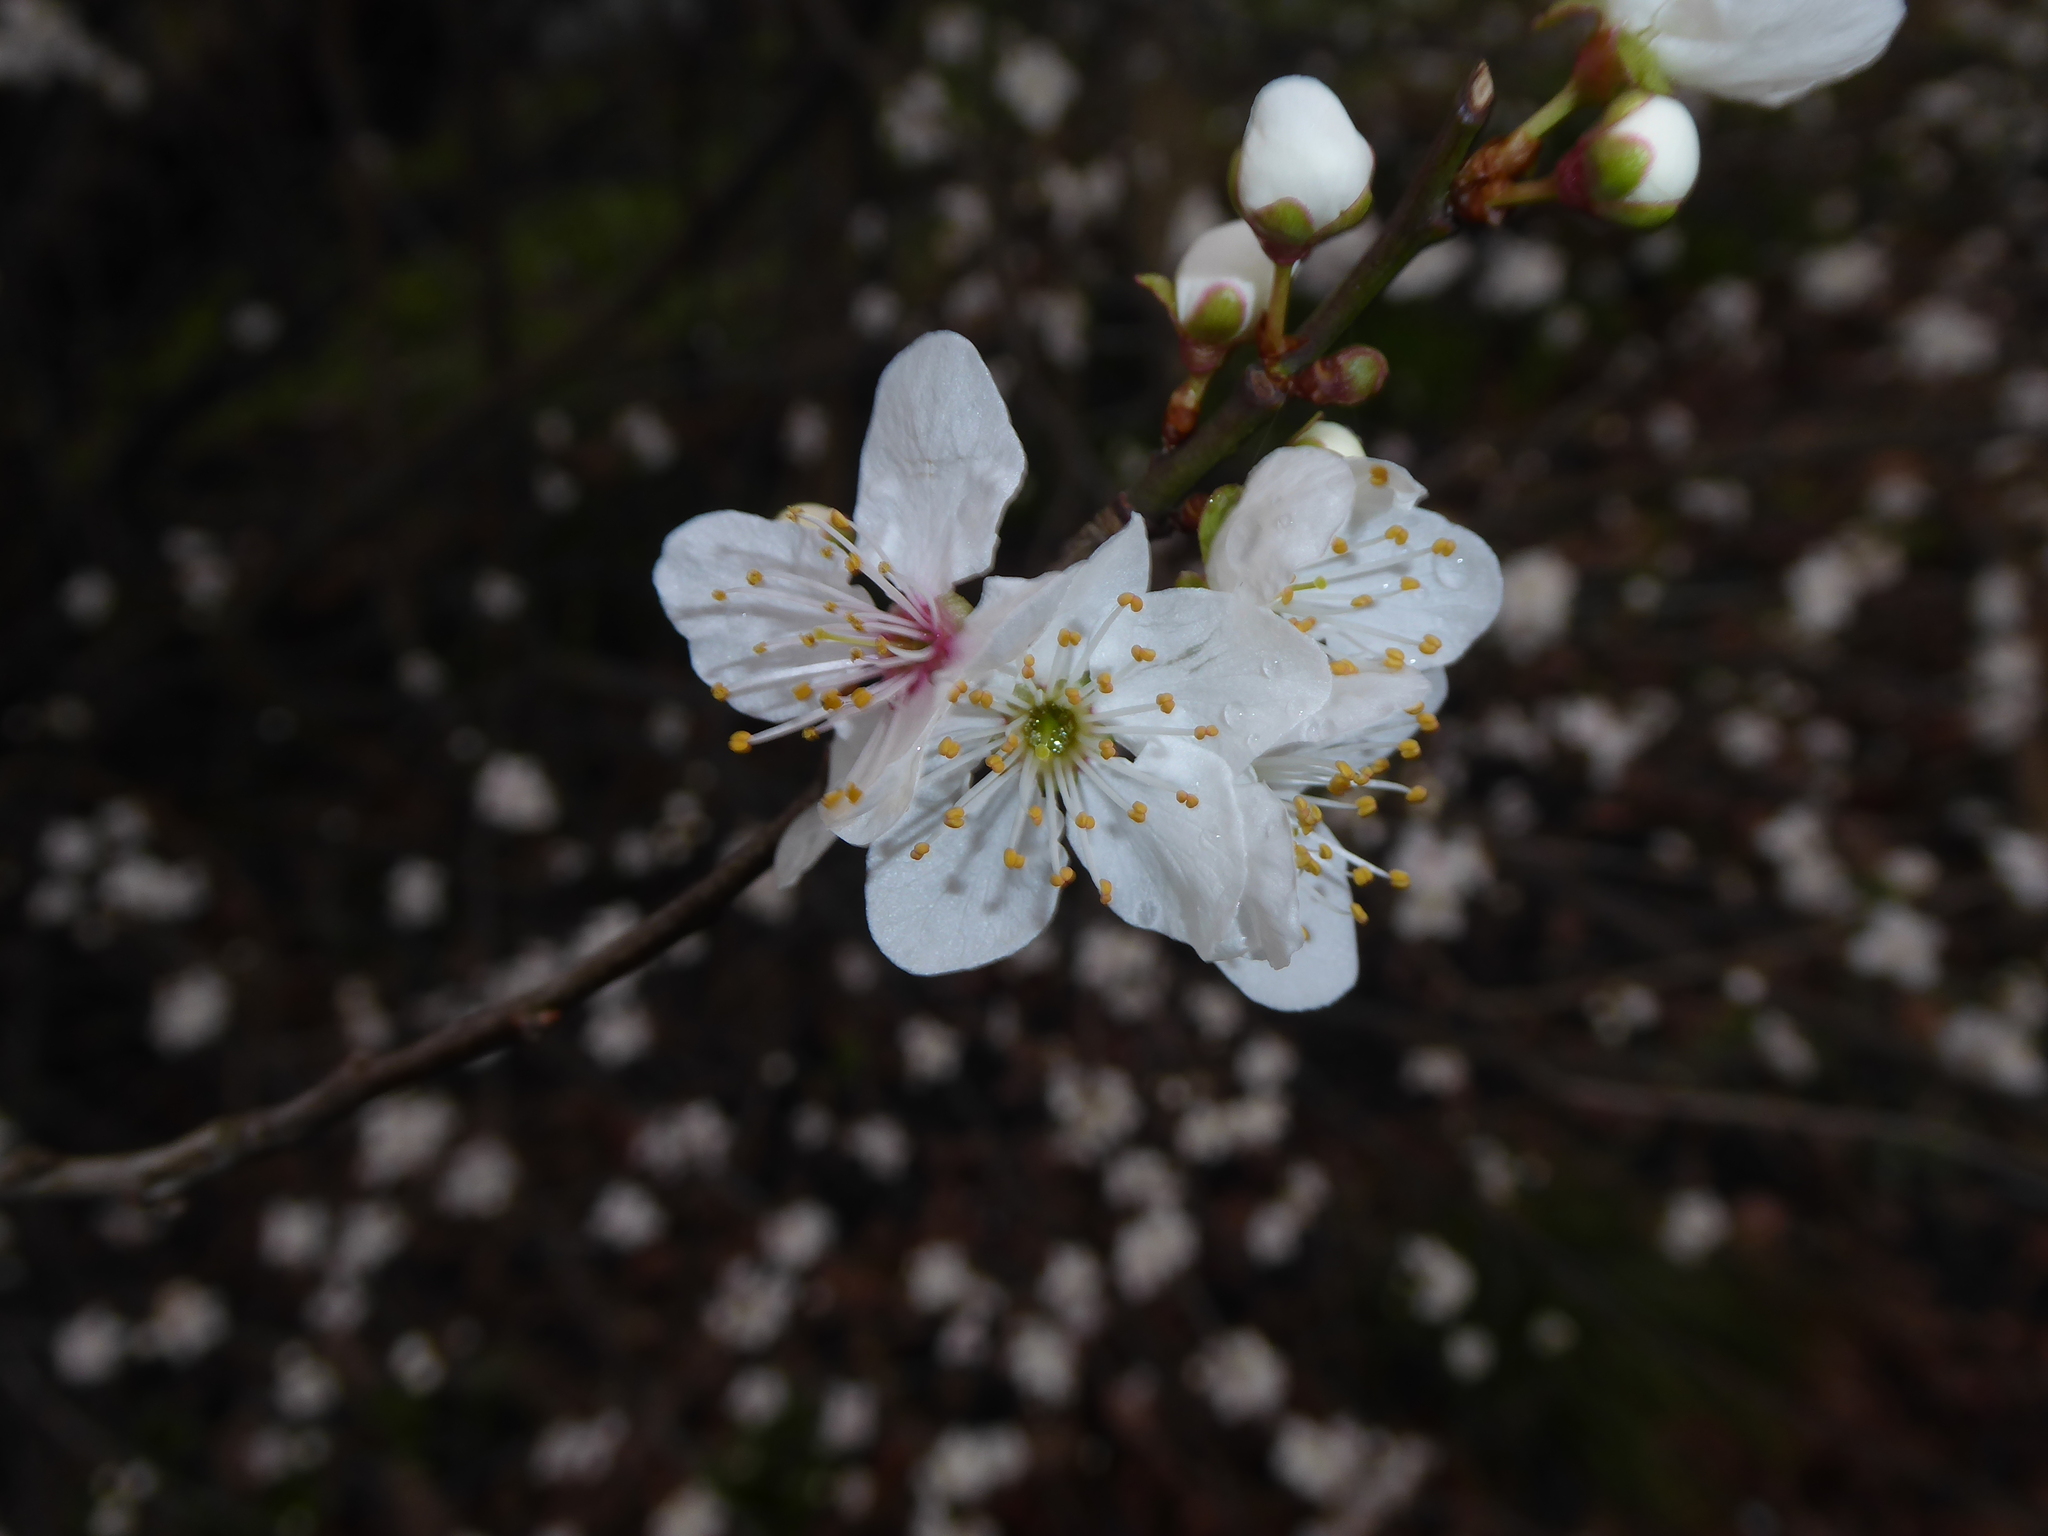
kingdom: Plantae
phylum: Tracheophyta
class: Magnoliopsida
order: Rosales
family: Rosaceae
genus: Prunus
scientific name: Prunus cerasifera
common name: Cherry plum
